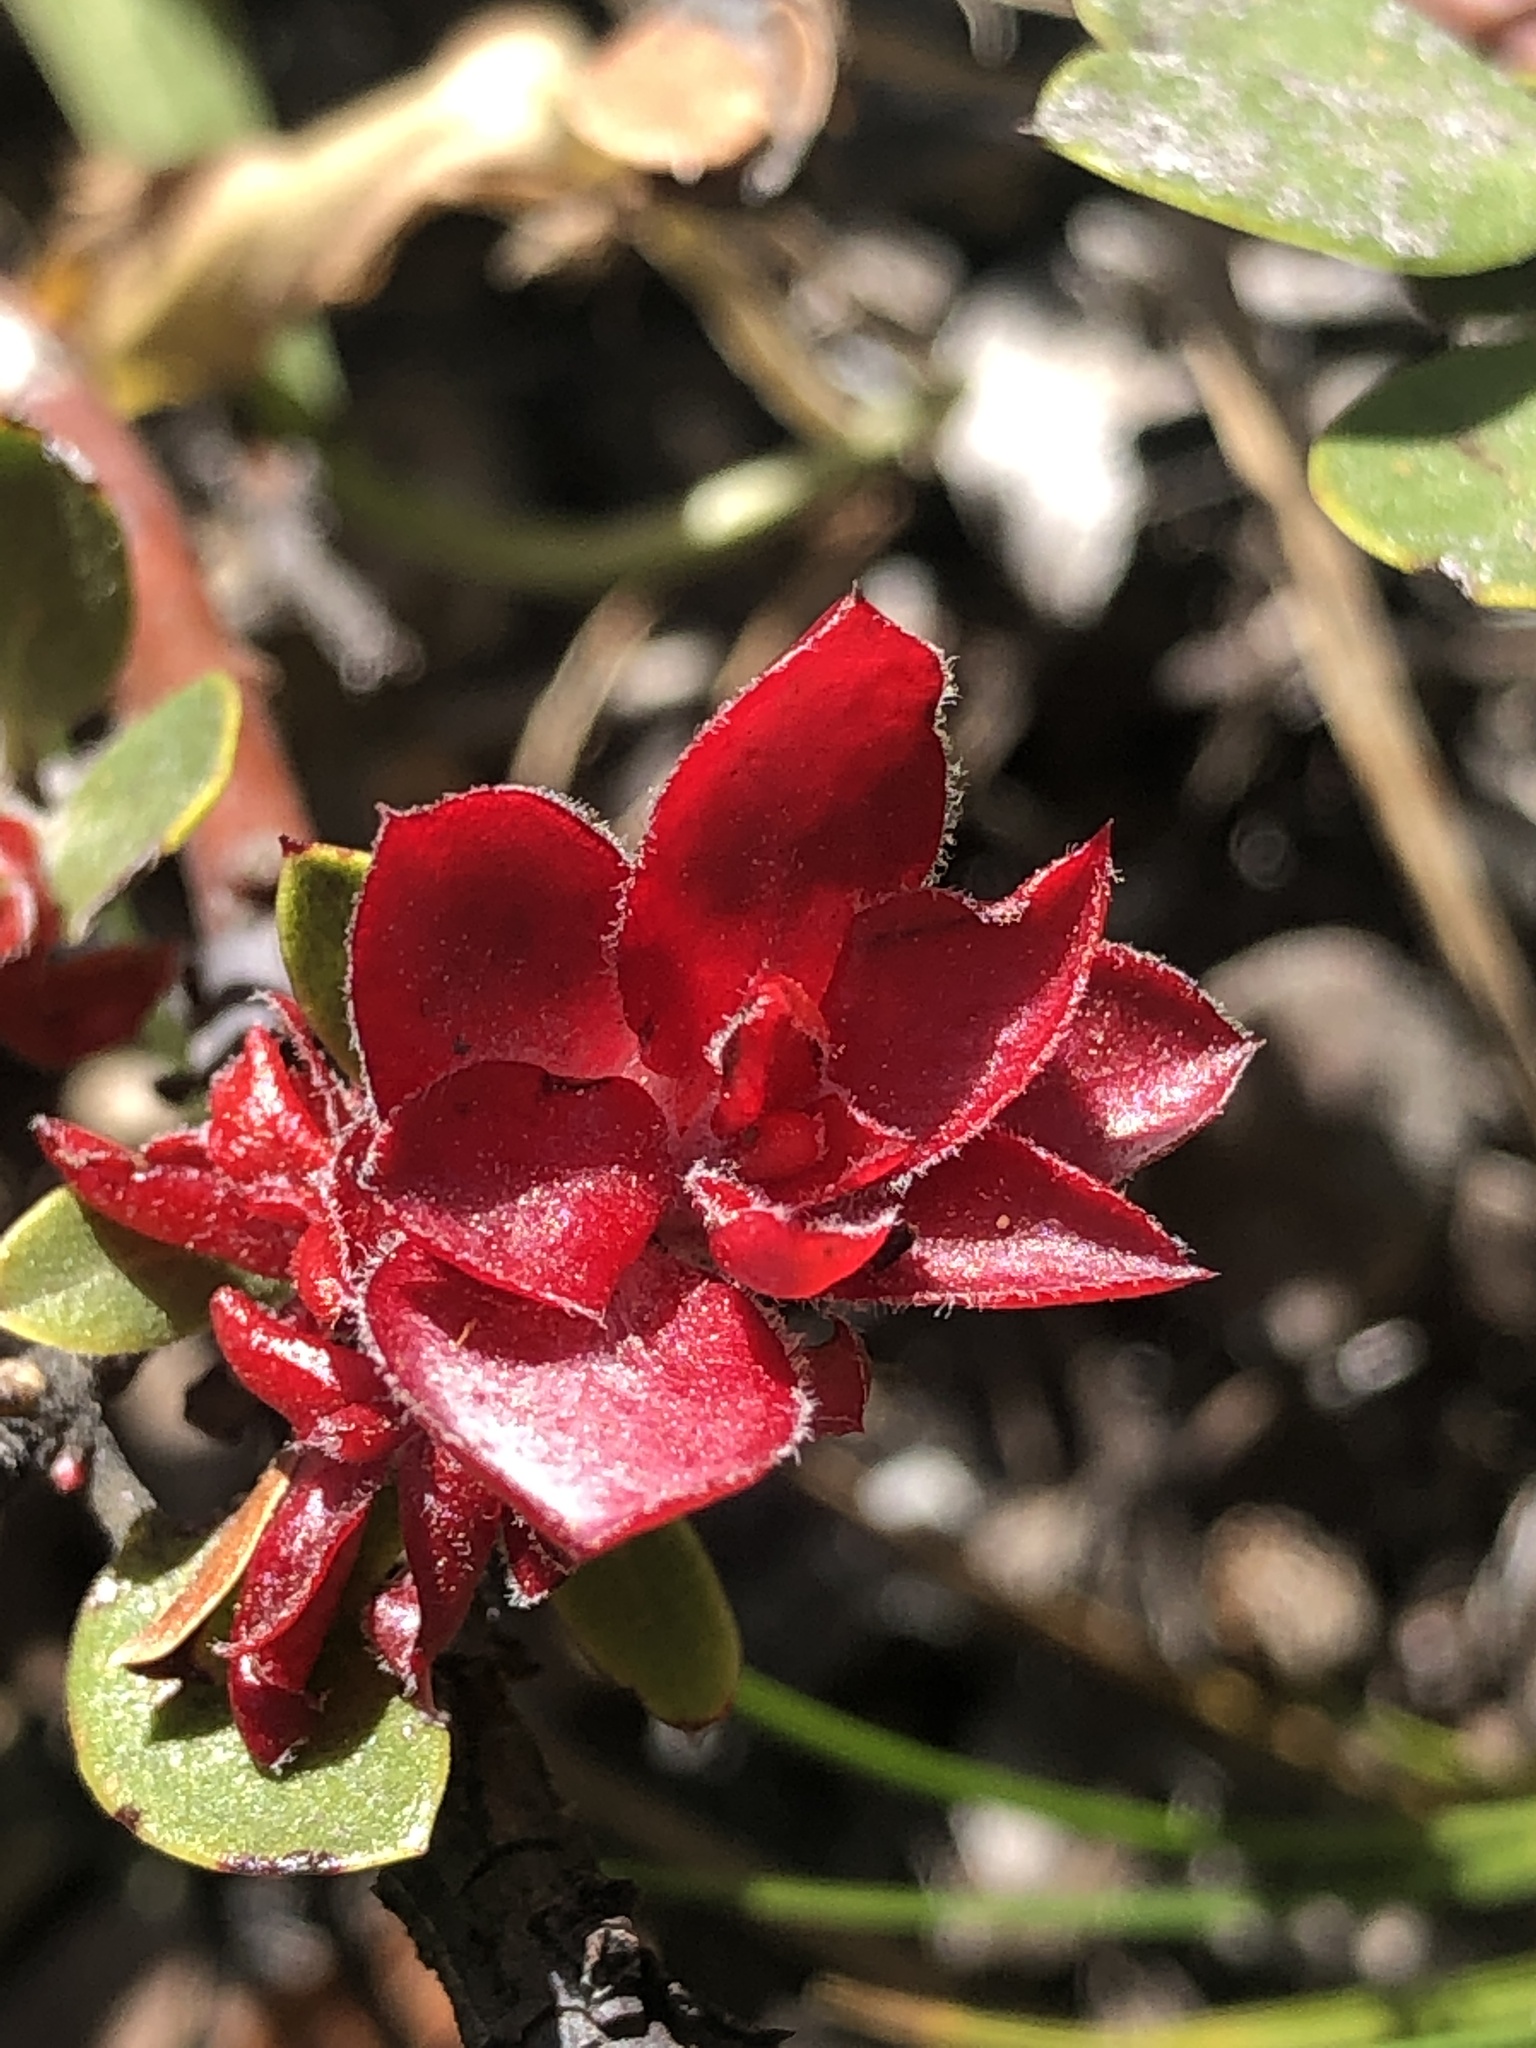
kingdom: Fungi
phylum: Basidiomycota
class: Exobasidiomycetes
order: Exobasidiales
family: Exobasidiaceae
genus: Exobasidium
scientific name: Exobasidium
